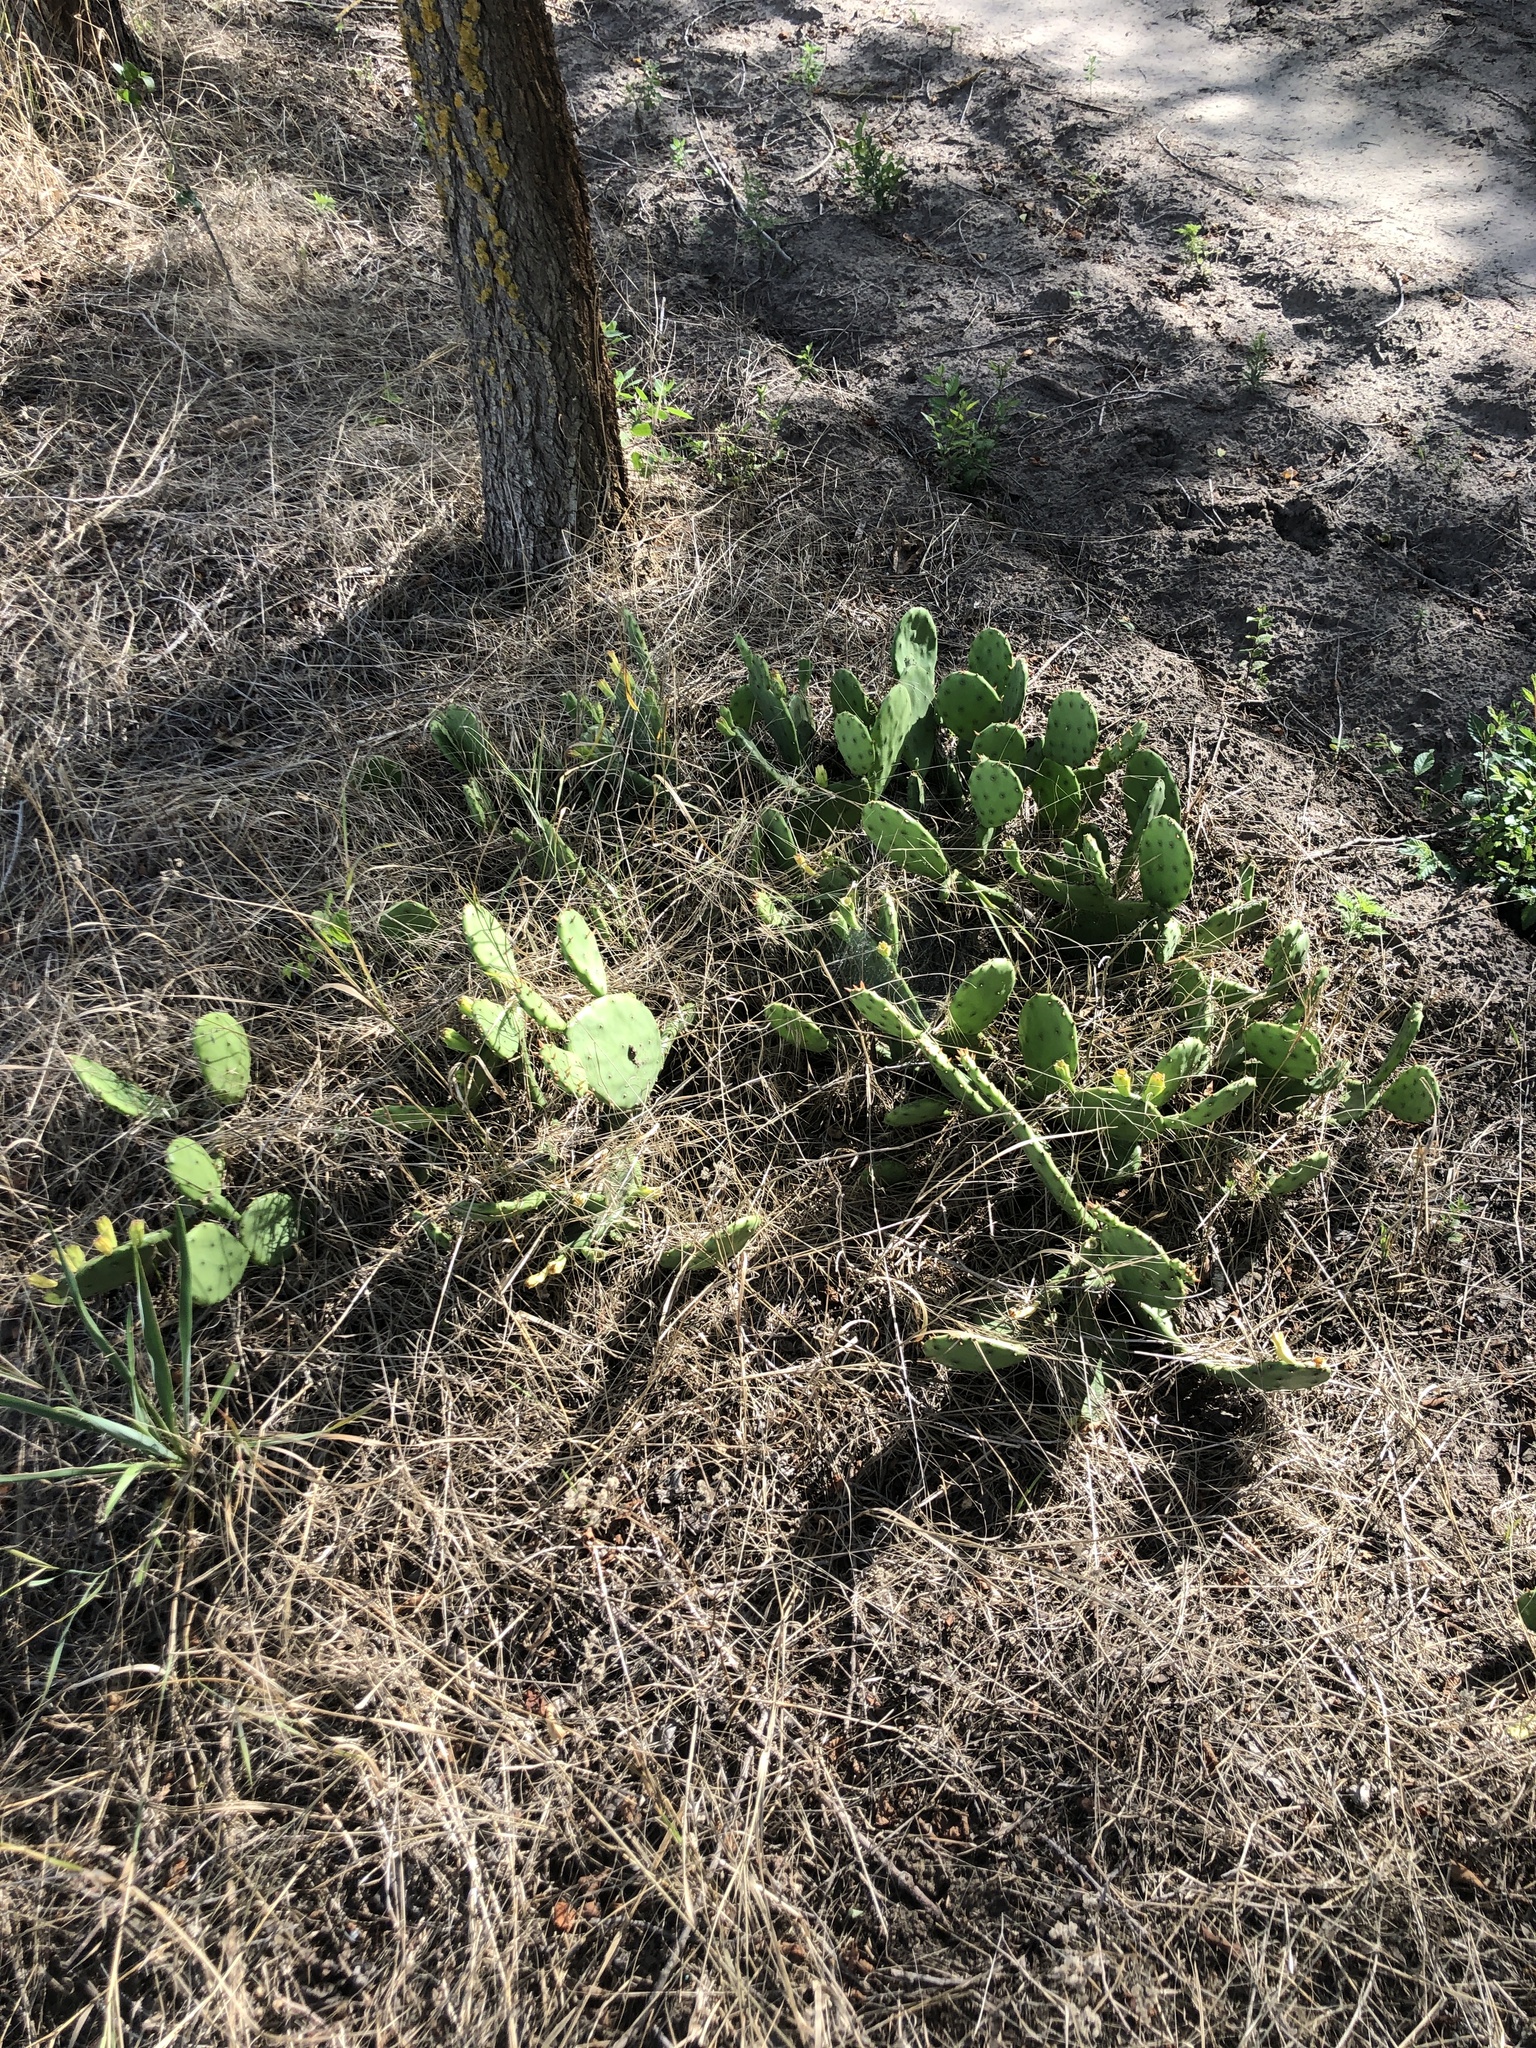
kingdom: Plantae
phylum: Tracheophyta
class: Magnoliopsida
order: Caryophyllales
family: Cactaceae
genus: Opuntia
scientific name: Opuntia humifusa
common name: Eastern prickly-pear
